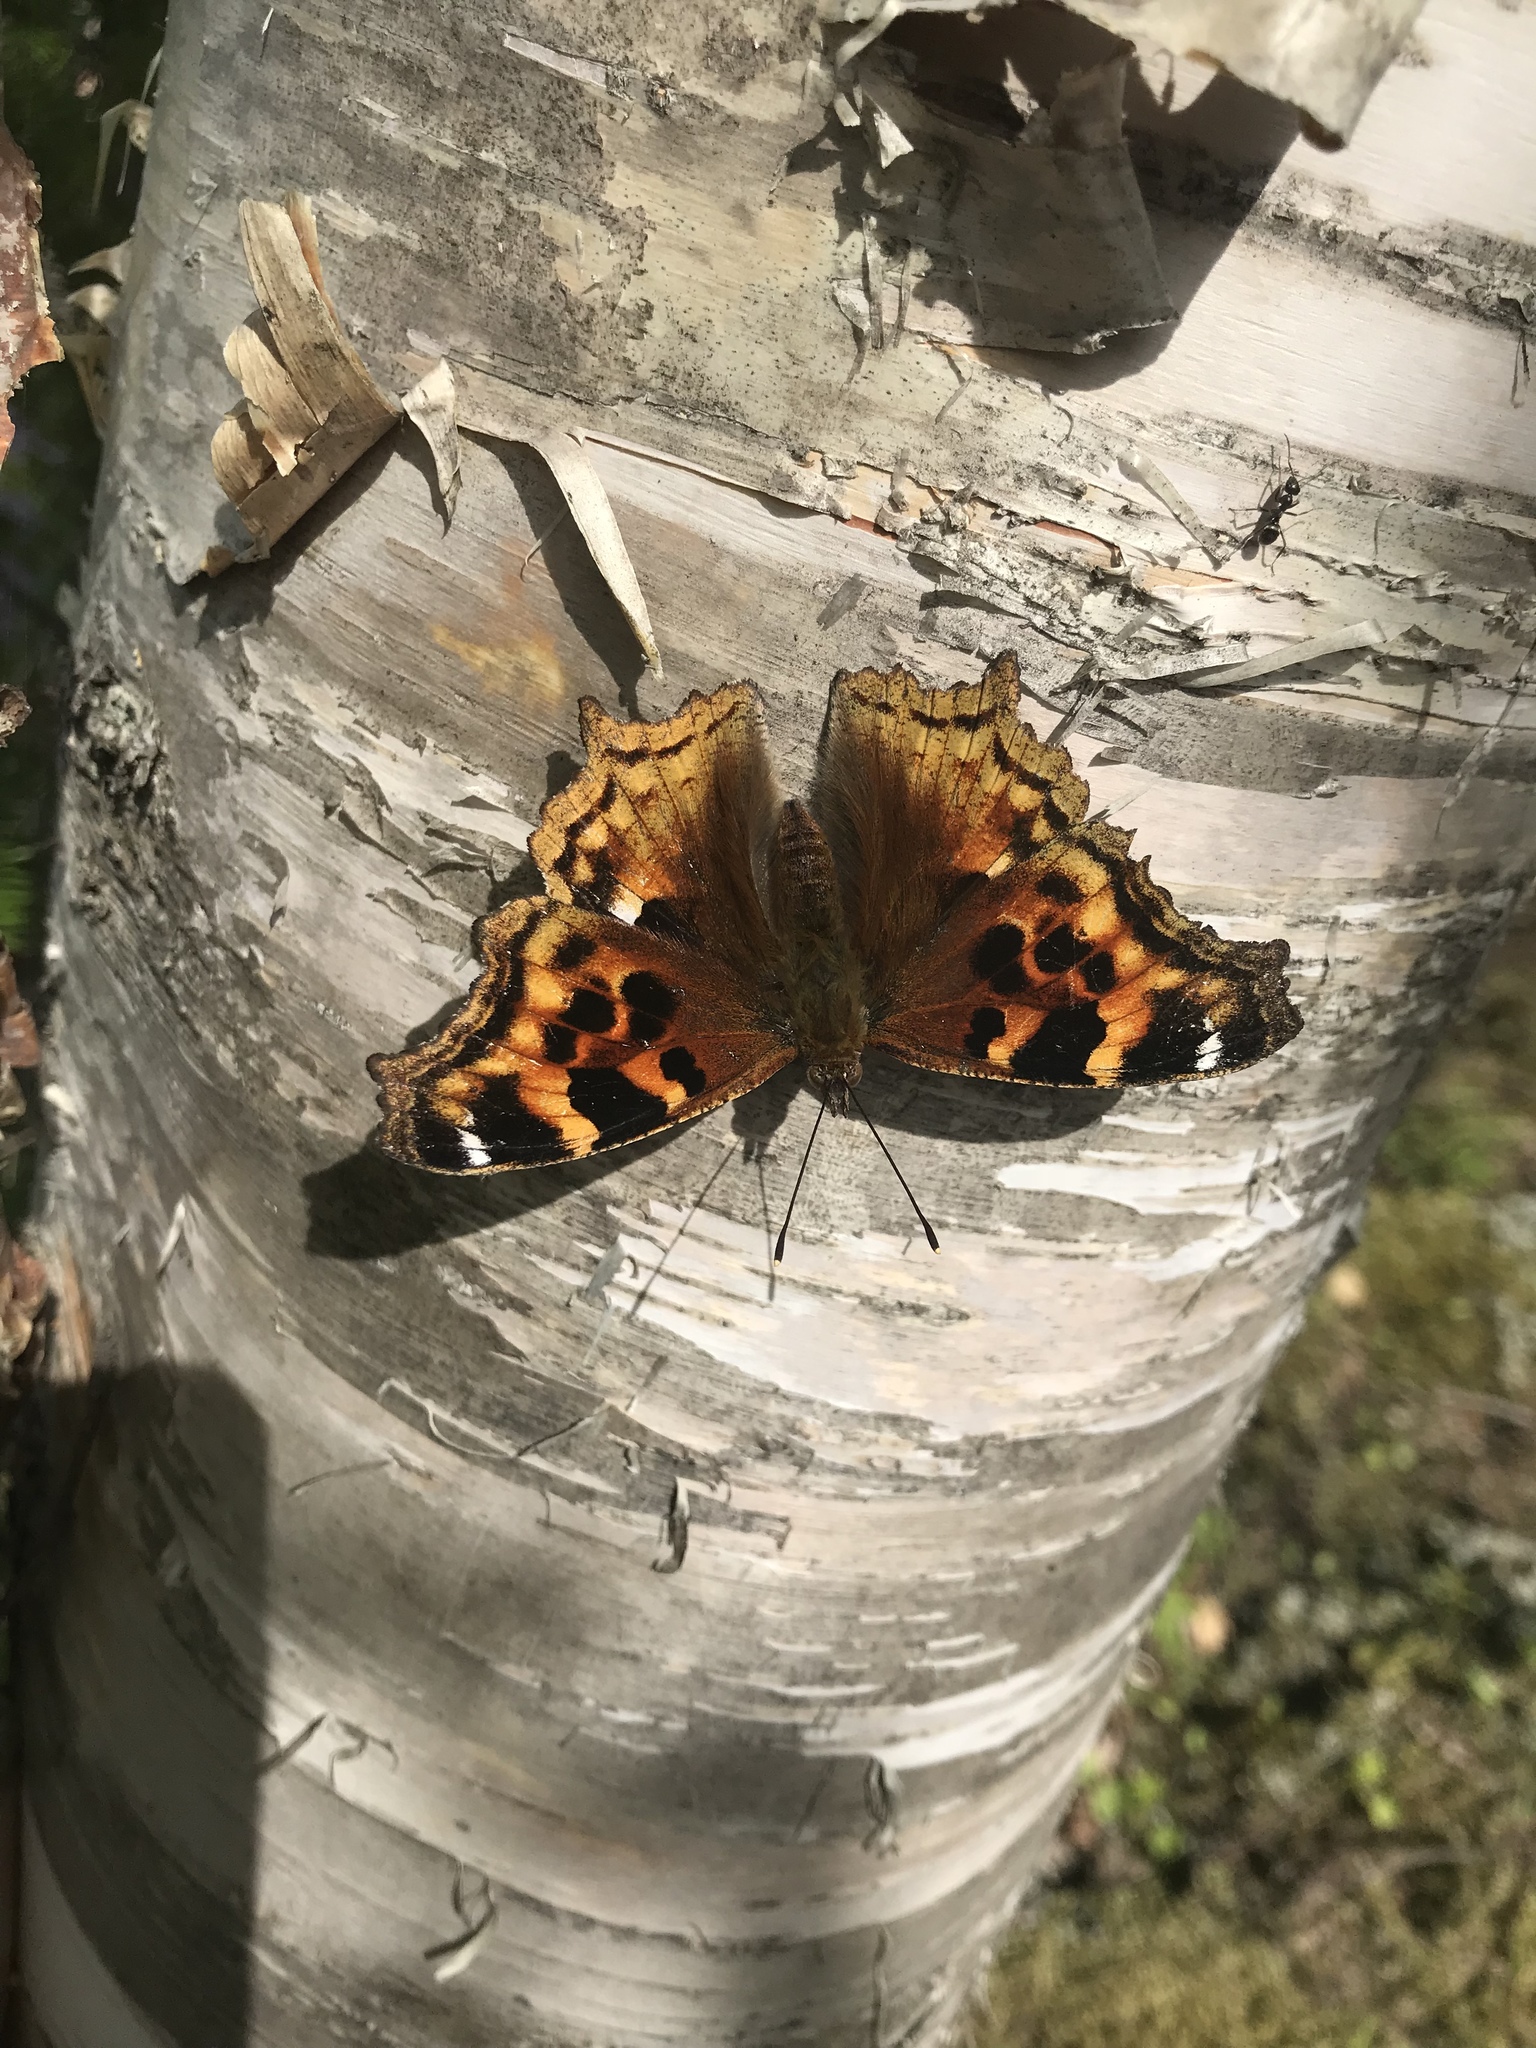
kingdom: Animalia
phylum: Arthropoda
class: Insecta
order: Lepidoptera
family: Nymphalidae
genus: Polygonia
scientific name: Polygonia vaualbum
